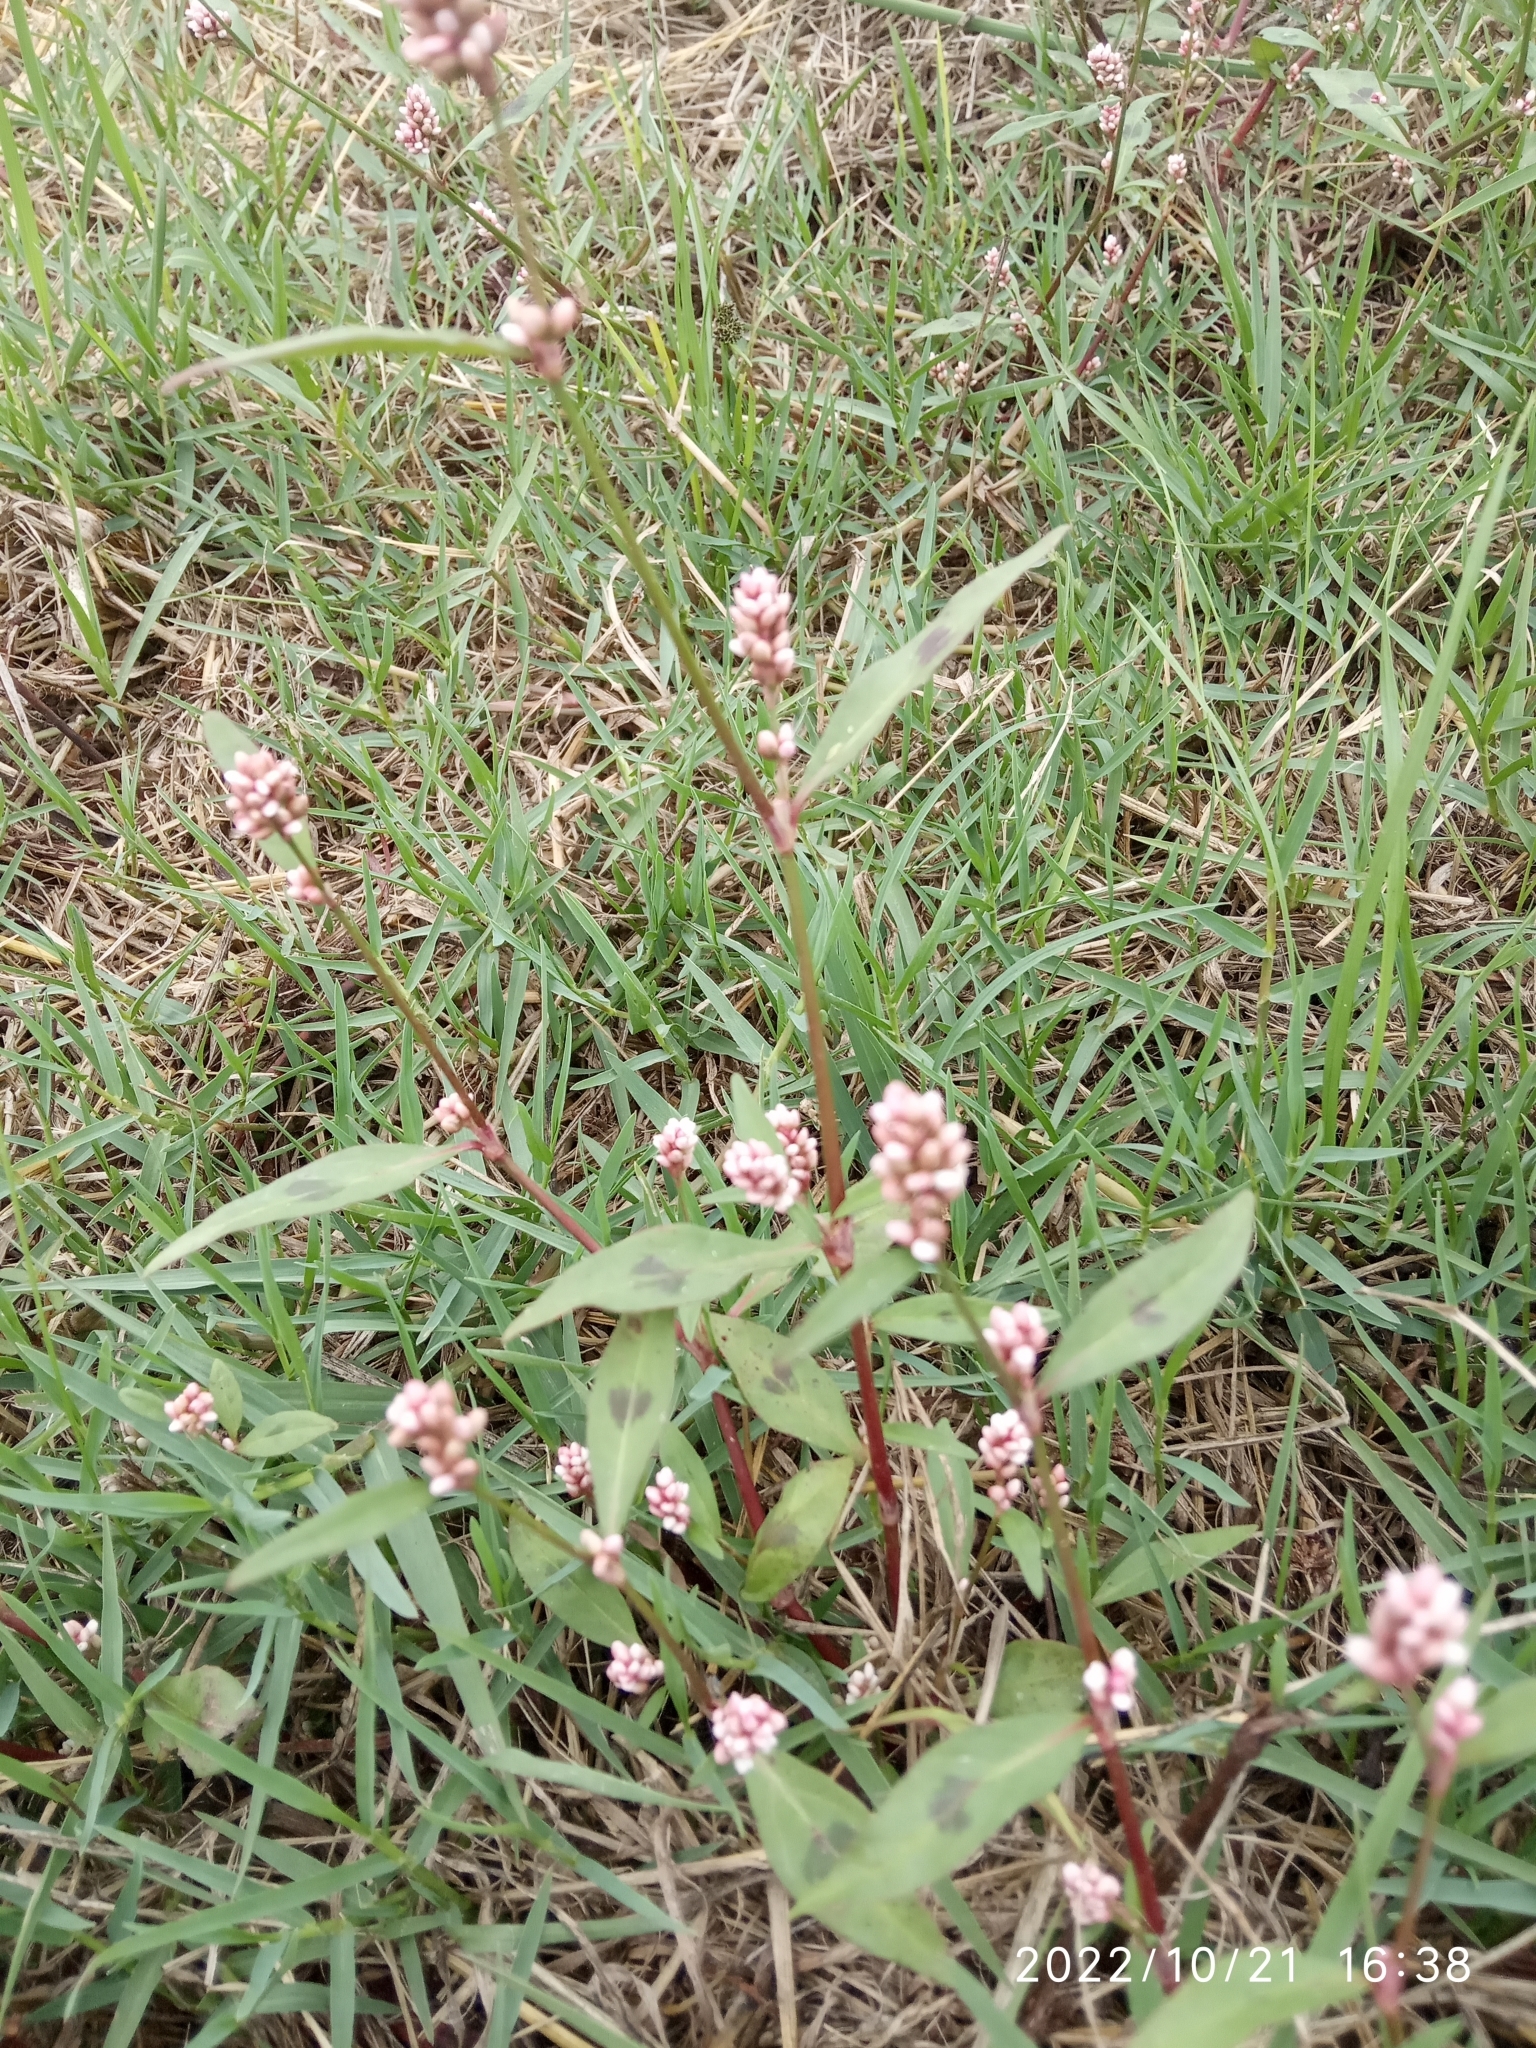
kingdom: Plantae
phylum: Tracheophyta
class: Magnoliopsida
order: Caryophyllales
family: Polygonaceae
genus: Persicaria
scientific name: Persicaria maculosa
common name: Redshank
